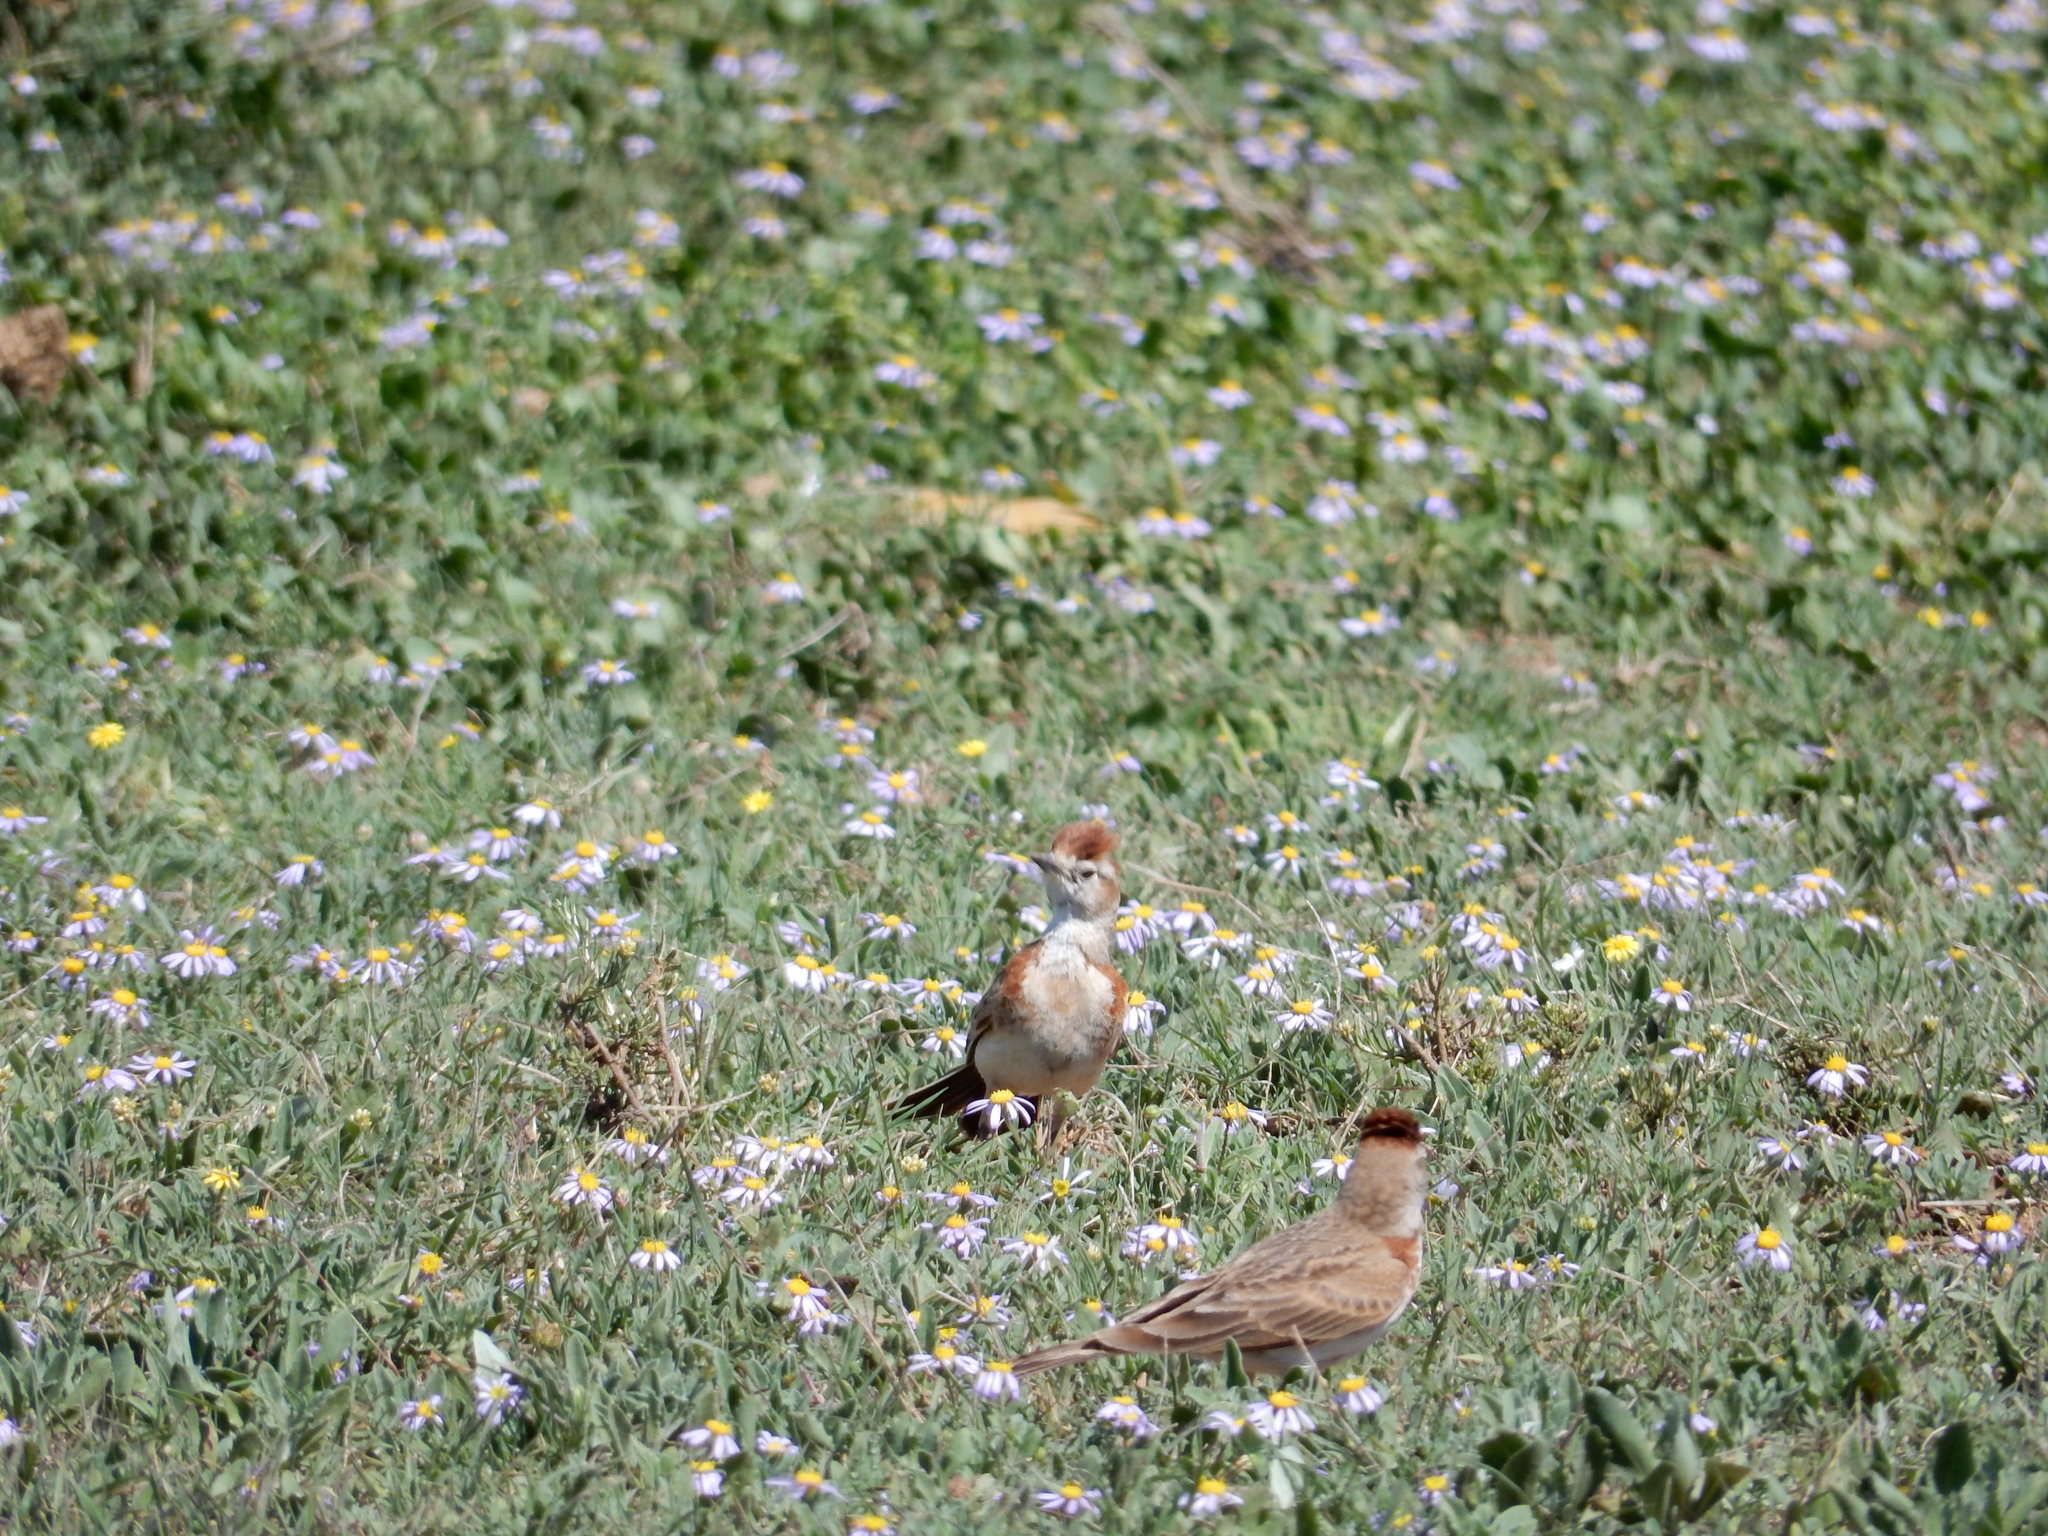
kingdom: Animalia
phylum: Chordata
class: Aves
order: Passeriformes
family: Alaudidae
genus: Calandrella
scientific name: Calandrella cinerea
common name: Red-capped lark
